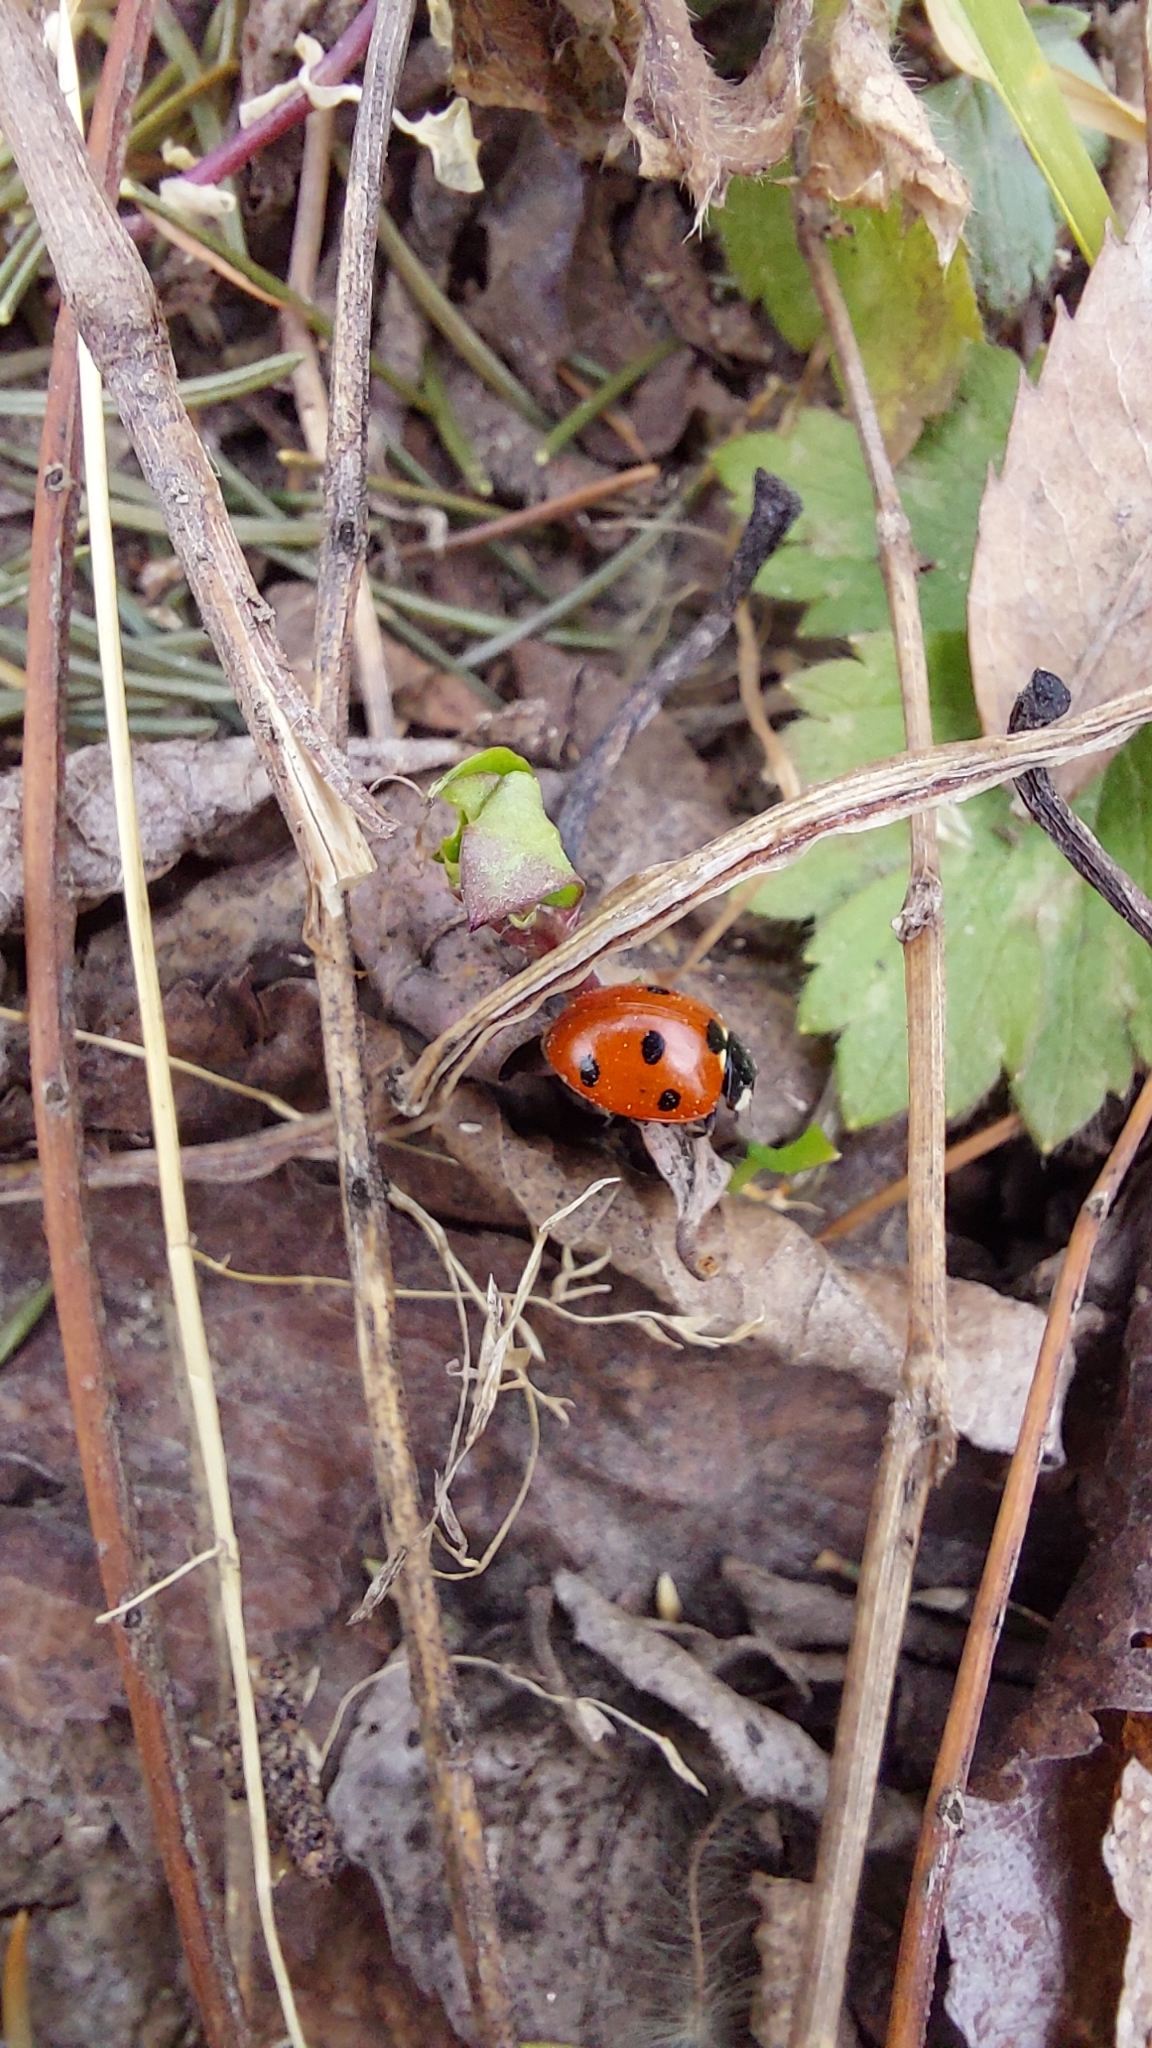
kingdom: Animalia
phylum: Arthropoda
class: Insecta
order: Coleoptera
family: Coccinellidae
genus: Coccinella
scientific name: Coccinella septempunctata
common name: Sevenspotted lady beetle
